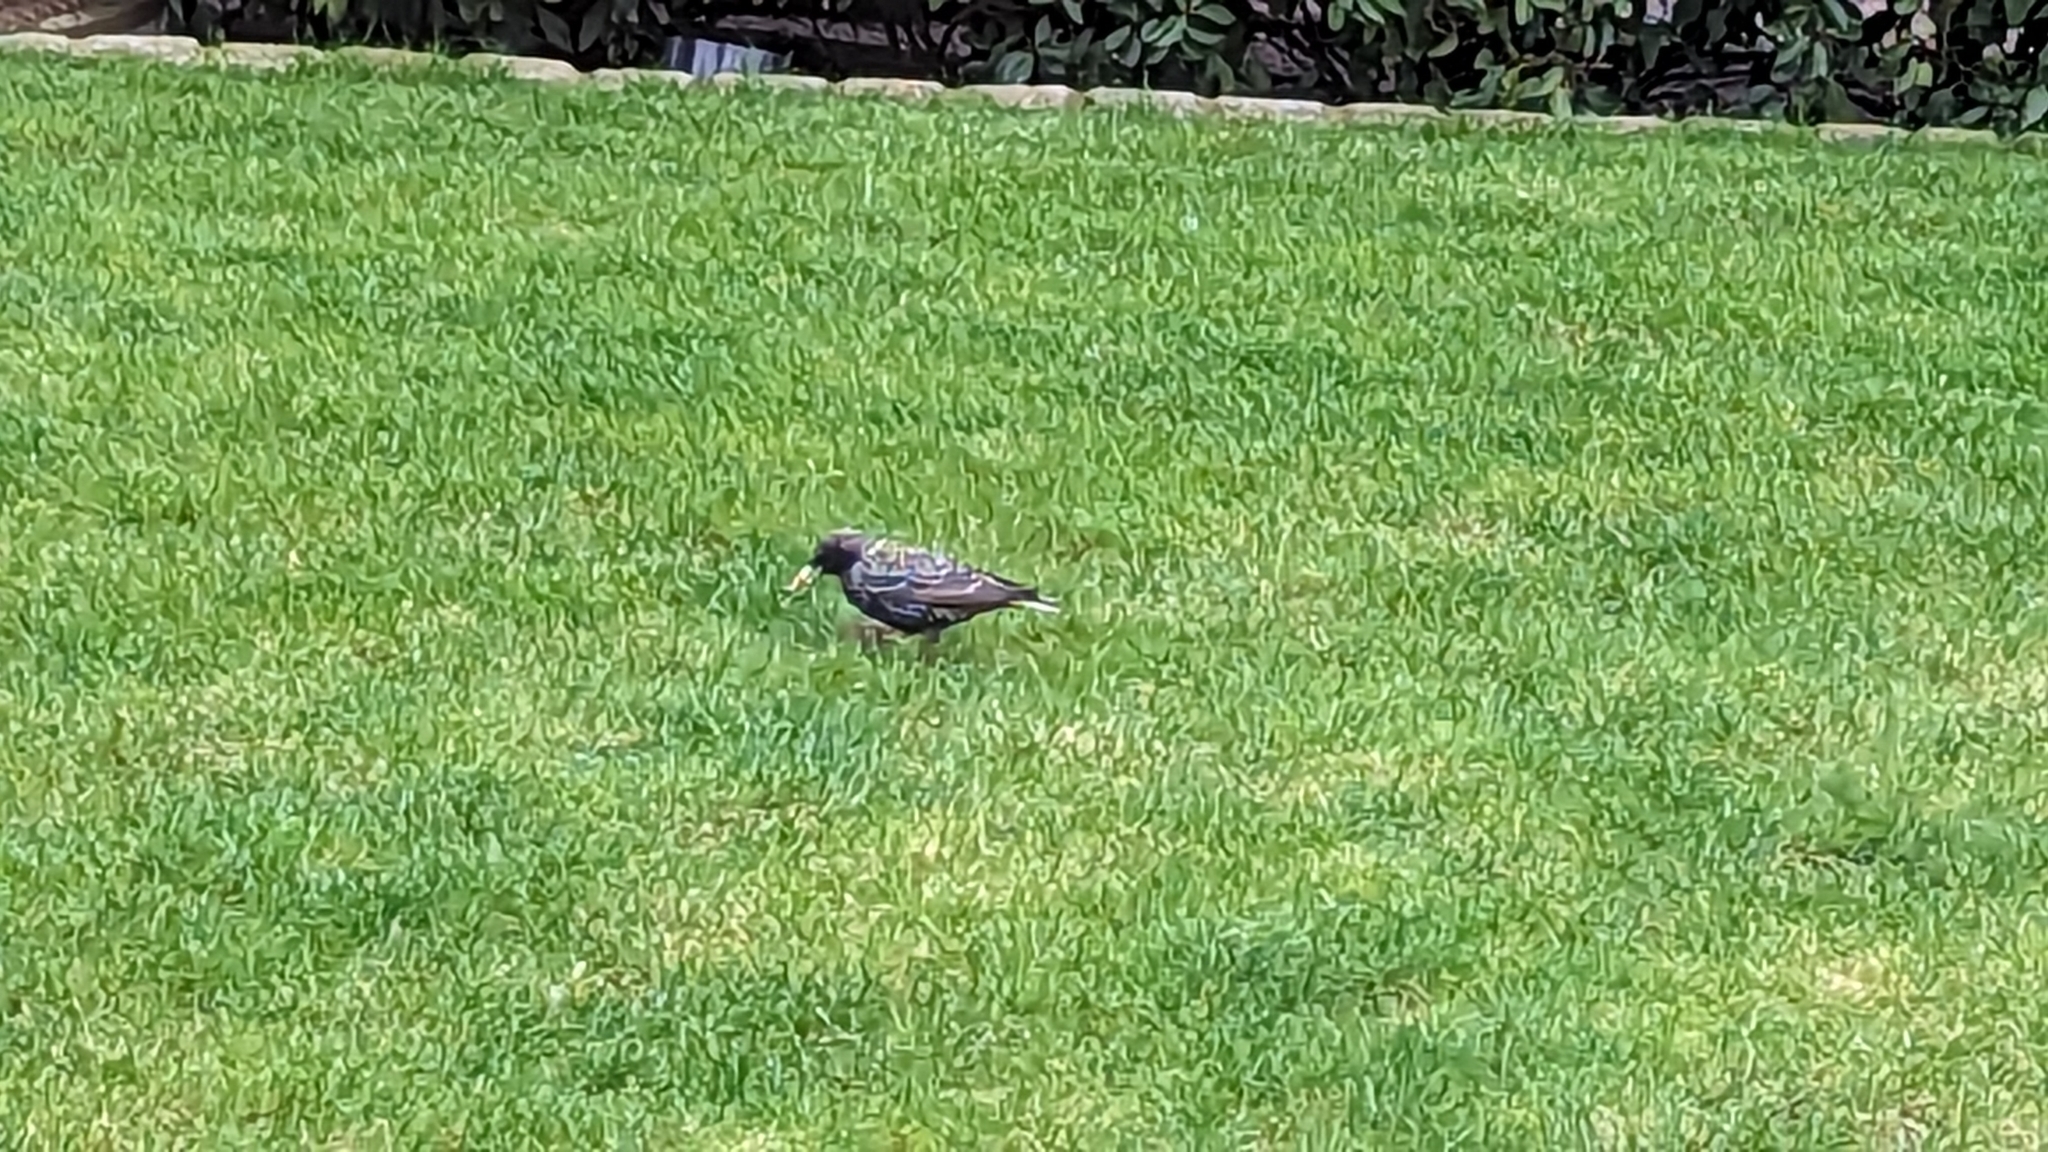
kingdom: Animalia
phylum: Chordata
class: Aves
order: Passeriformes
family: Sturnidae
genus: Sturnus
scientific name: Sturnus vulgaris
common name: Common starling
